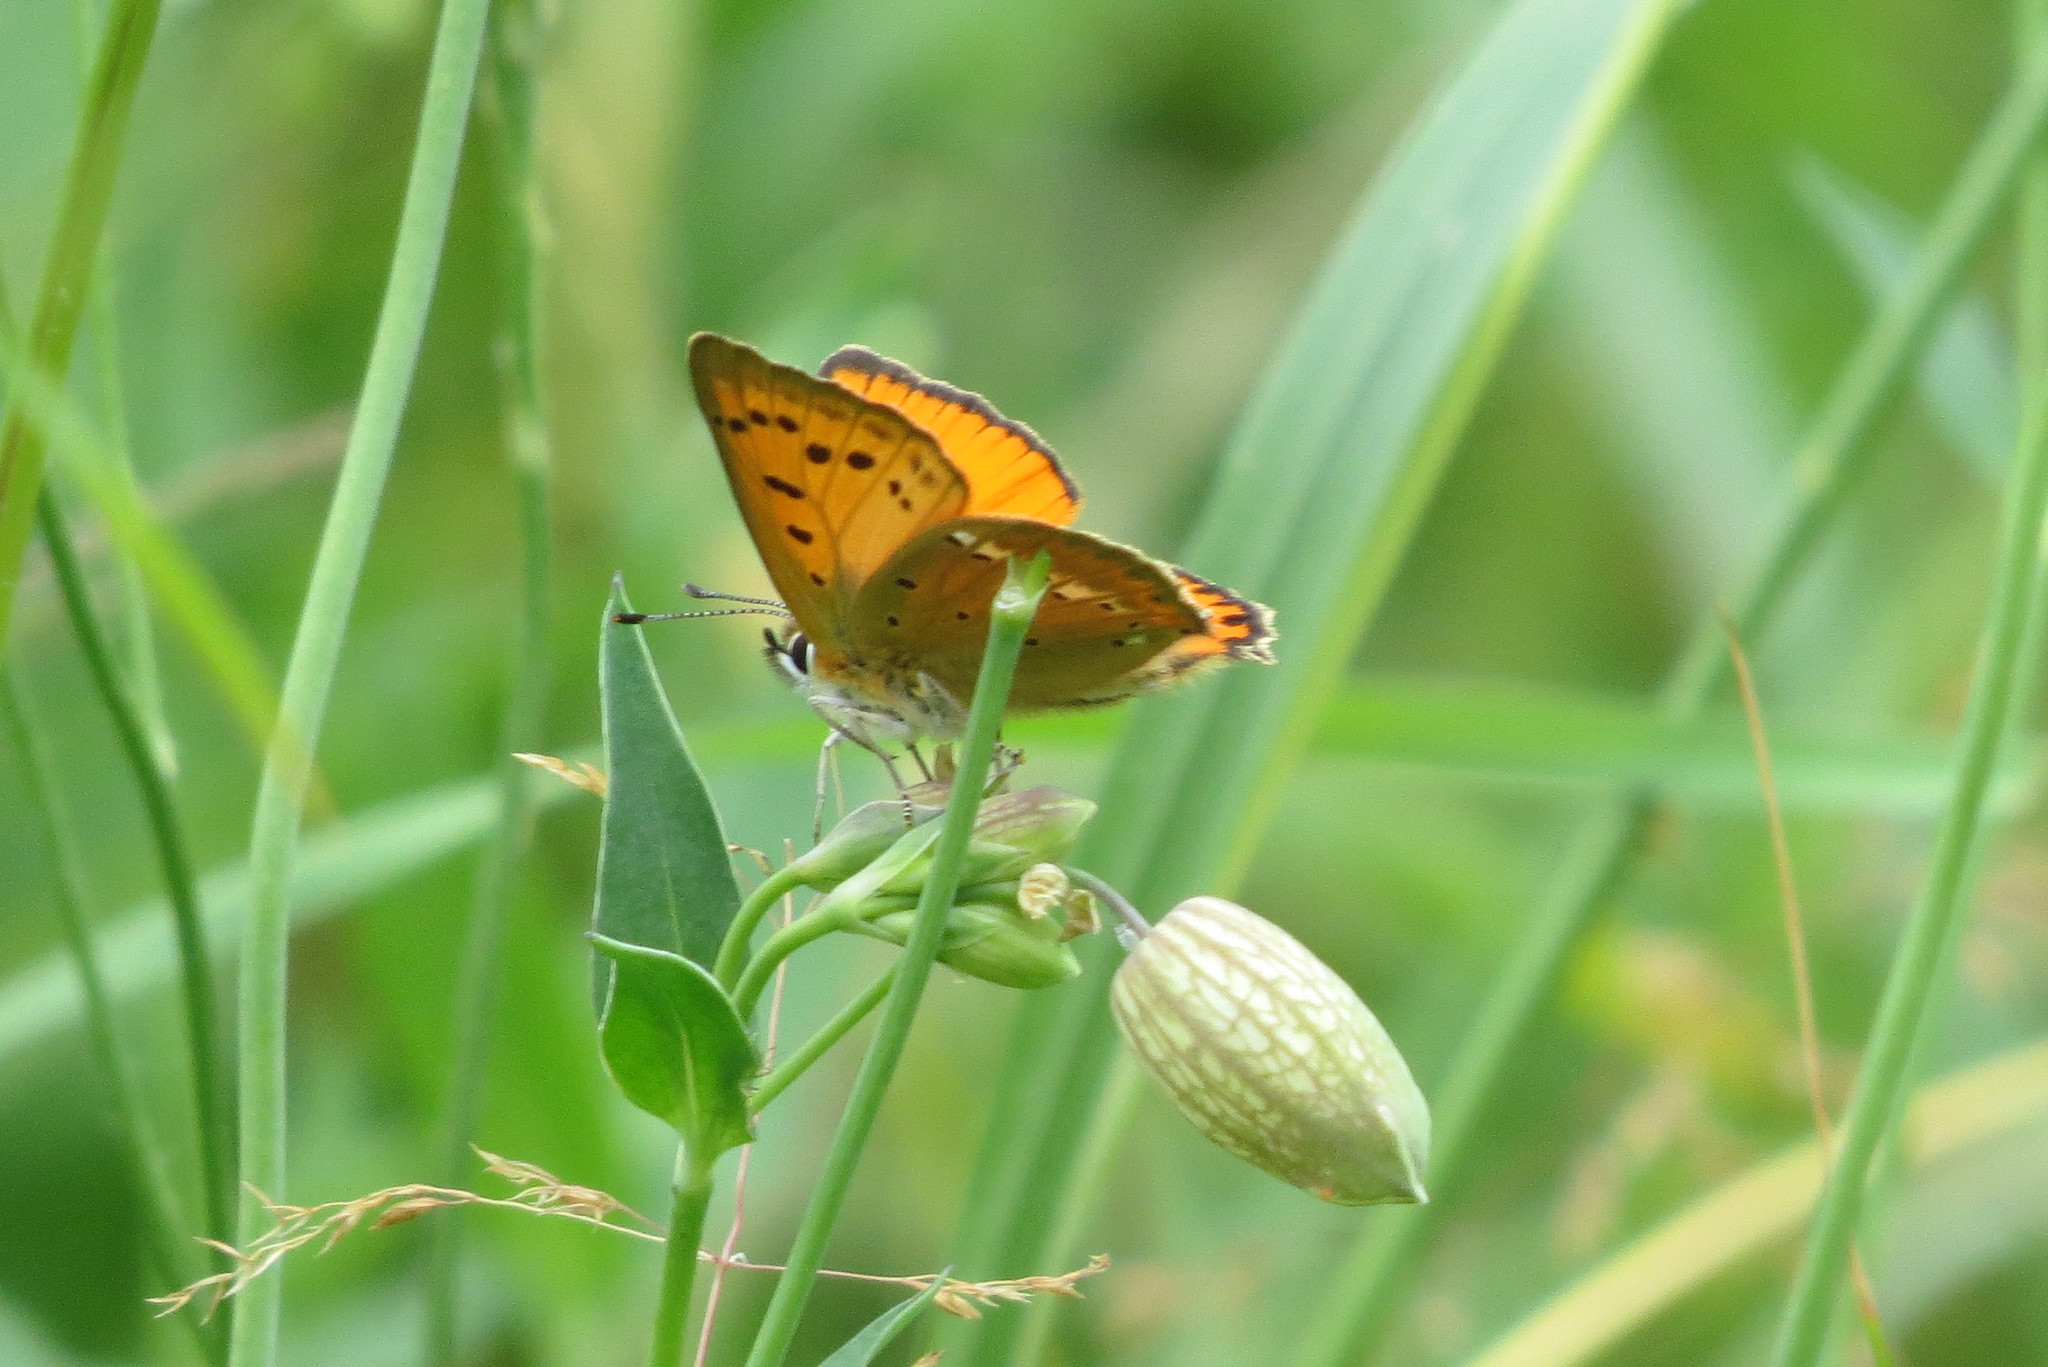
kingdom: Animalia
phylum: Arthropoda
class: Insecta
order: Lepidoptera
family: Lycaenidae
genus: Lycaena
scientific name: Lycaena virgaureae
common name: Scarce copper
